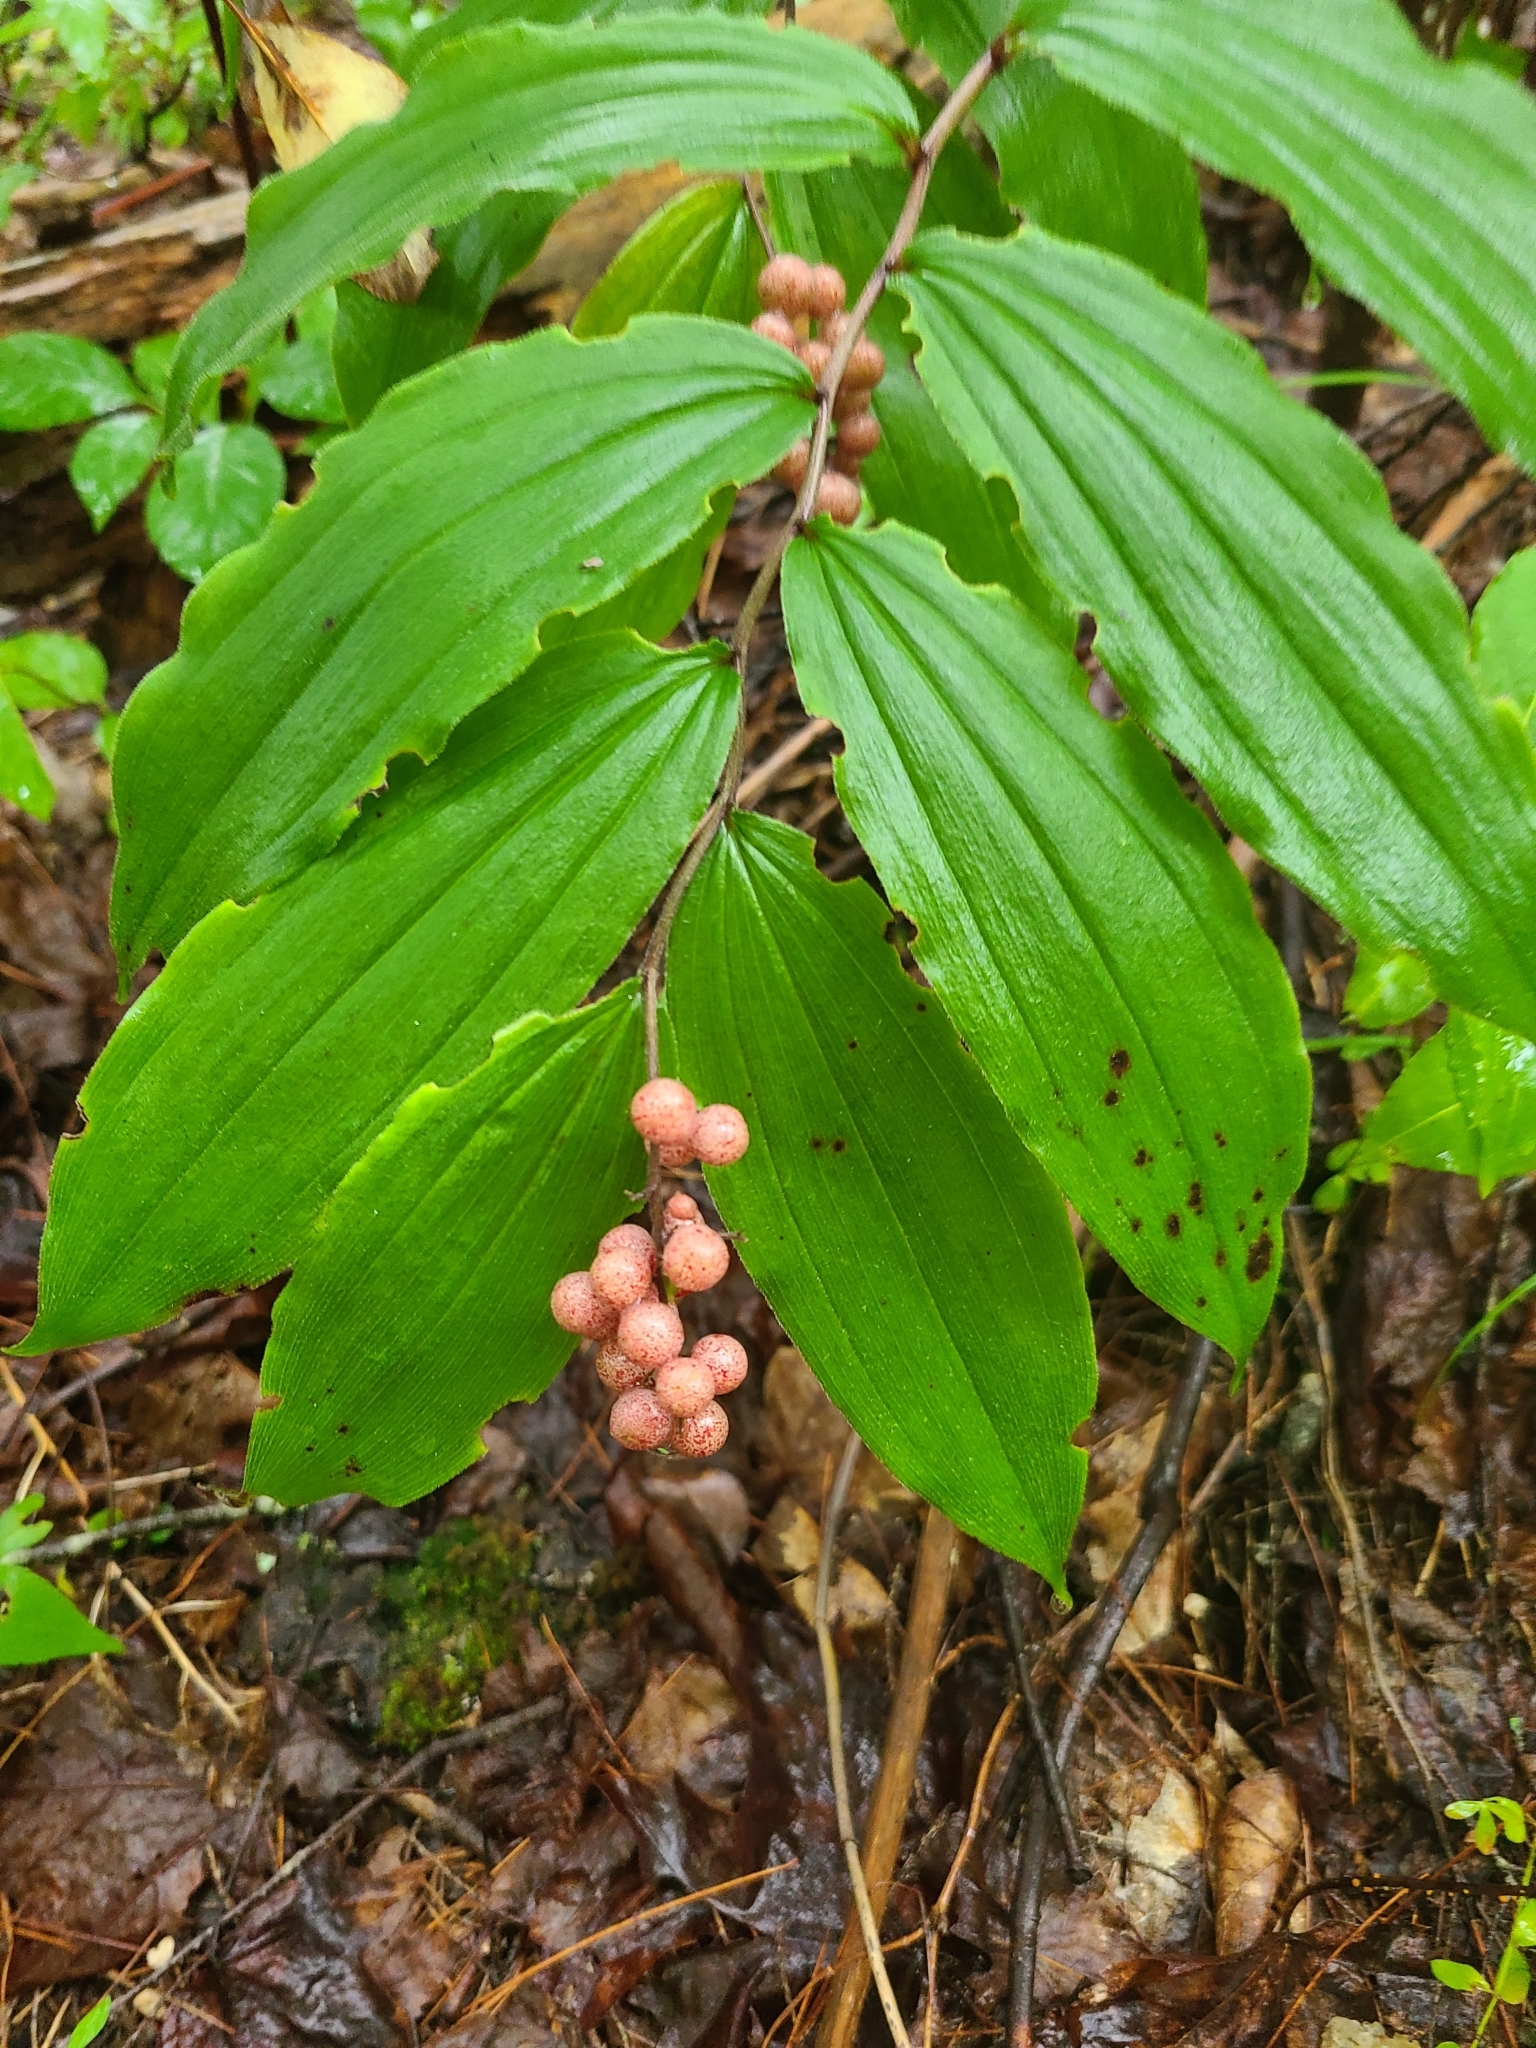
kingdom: Plantae
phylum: Tracheophyta
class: Liliopsida
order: Asparagales
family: Asparagaceae
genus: Maianthemum
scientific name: Maianthemum racemosum
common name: False spikenard
